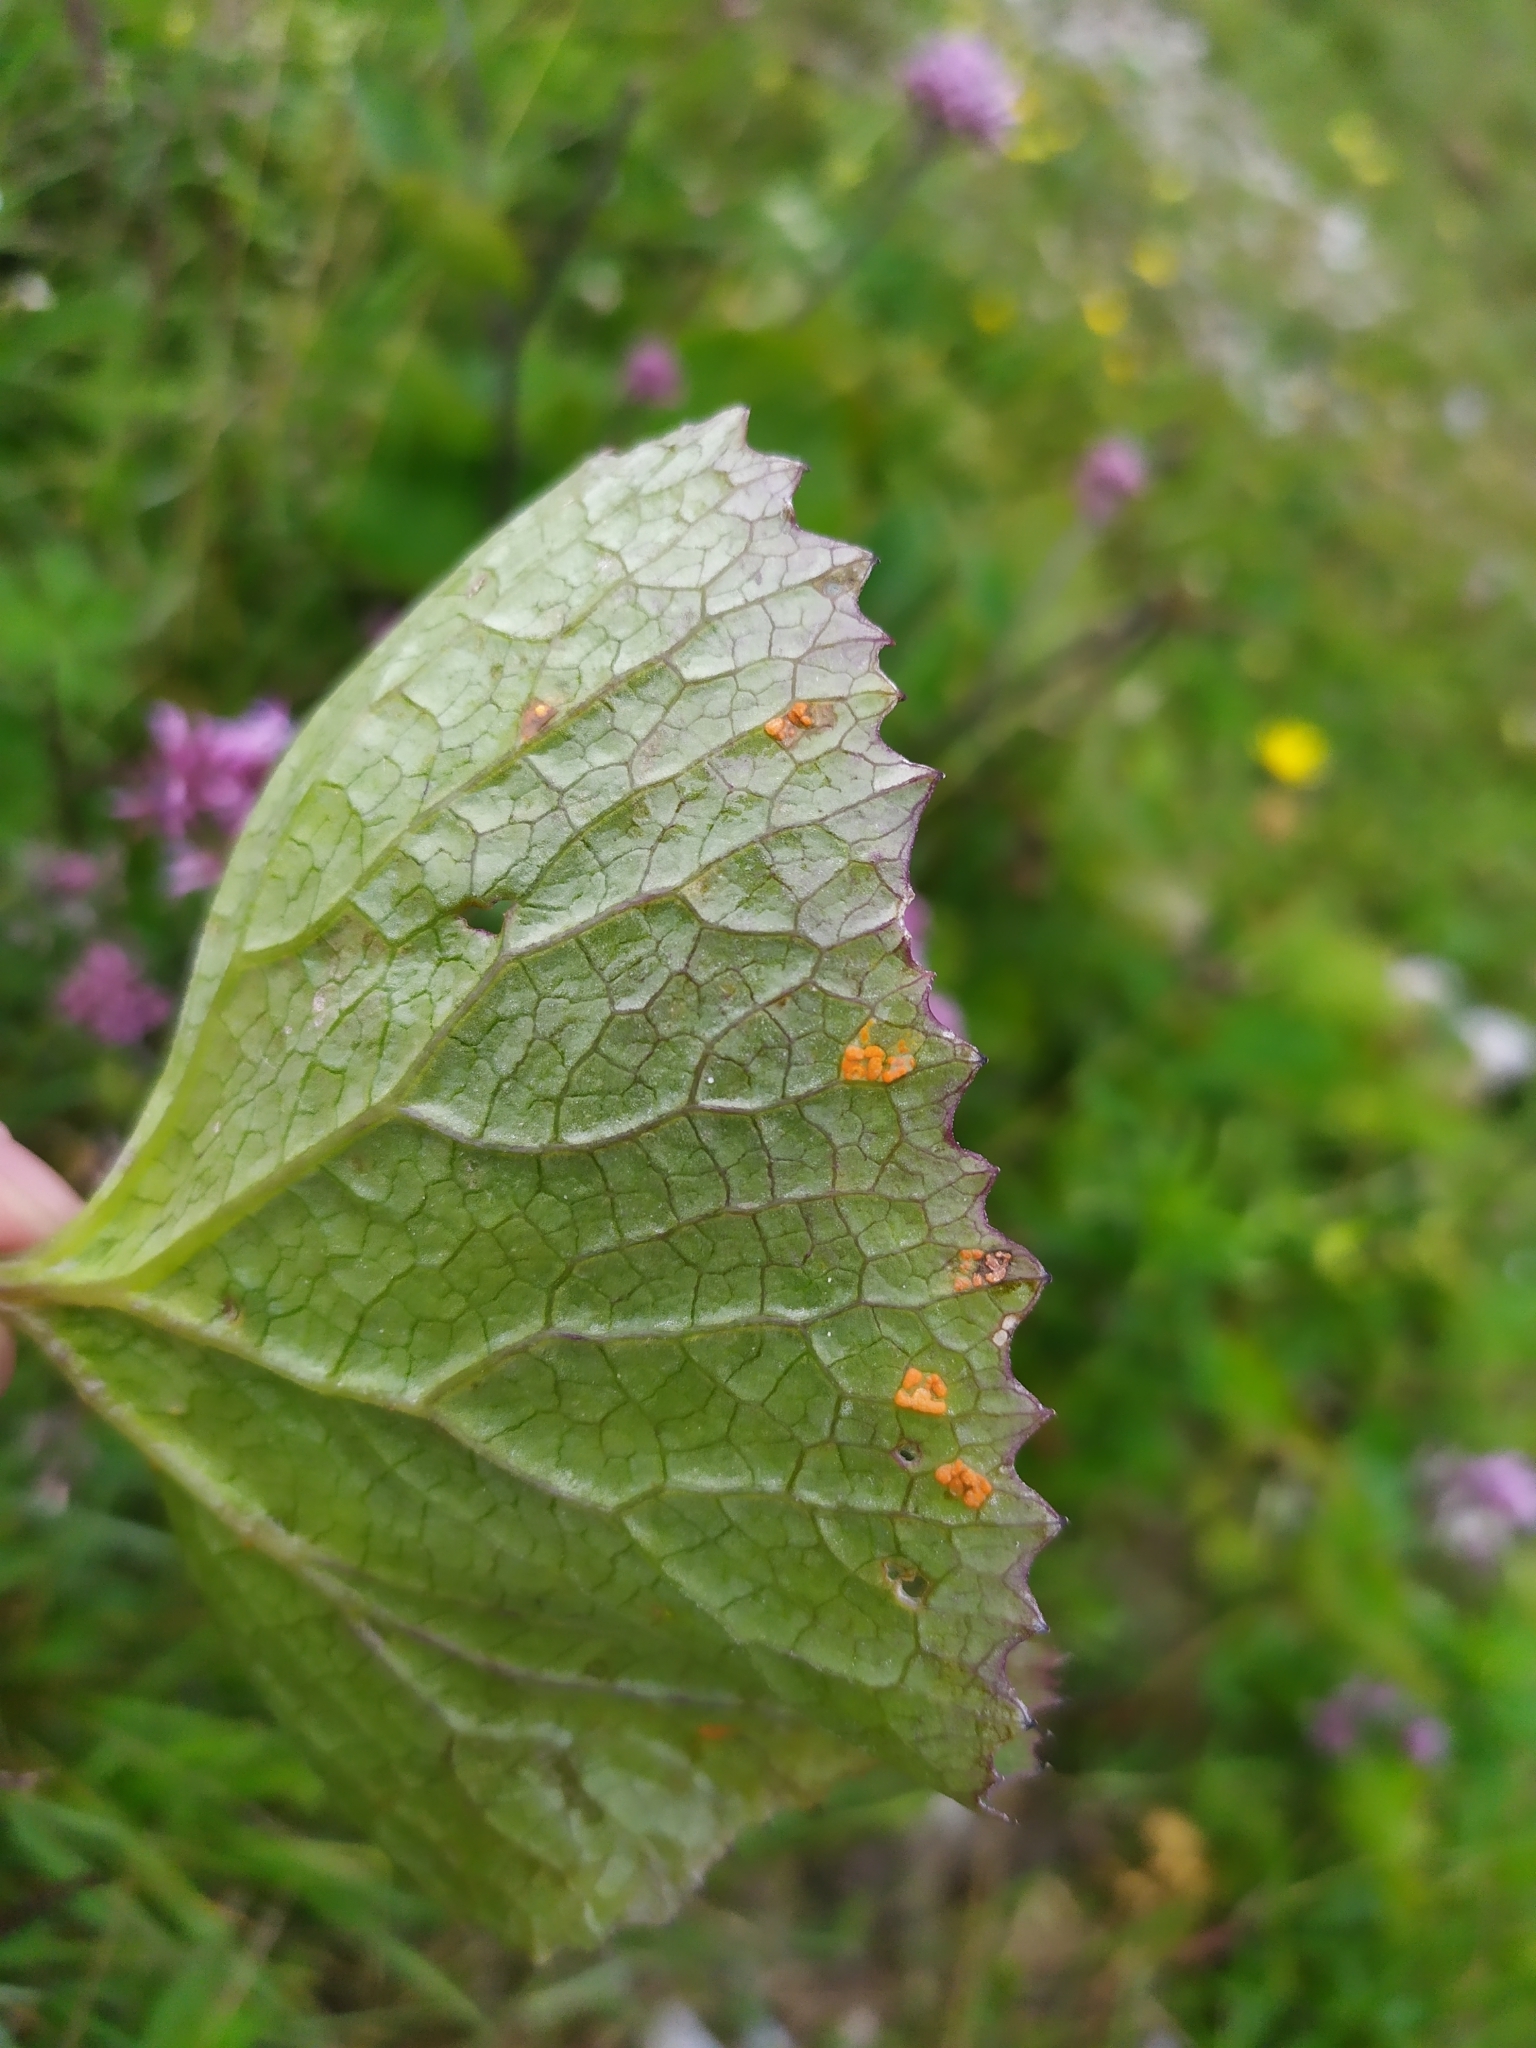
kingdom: Plantae
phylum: Tracheophyta
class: Magnoliopsida
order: Asterales
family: Asteraceae
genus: Adenostyles
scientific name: Adenostyles alpina
